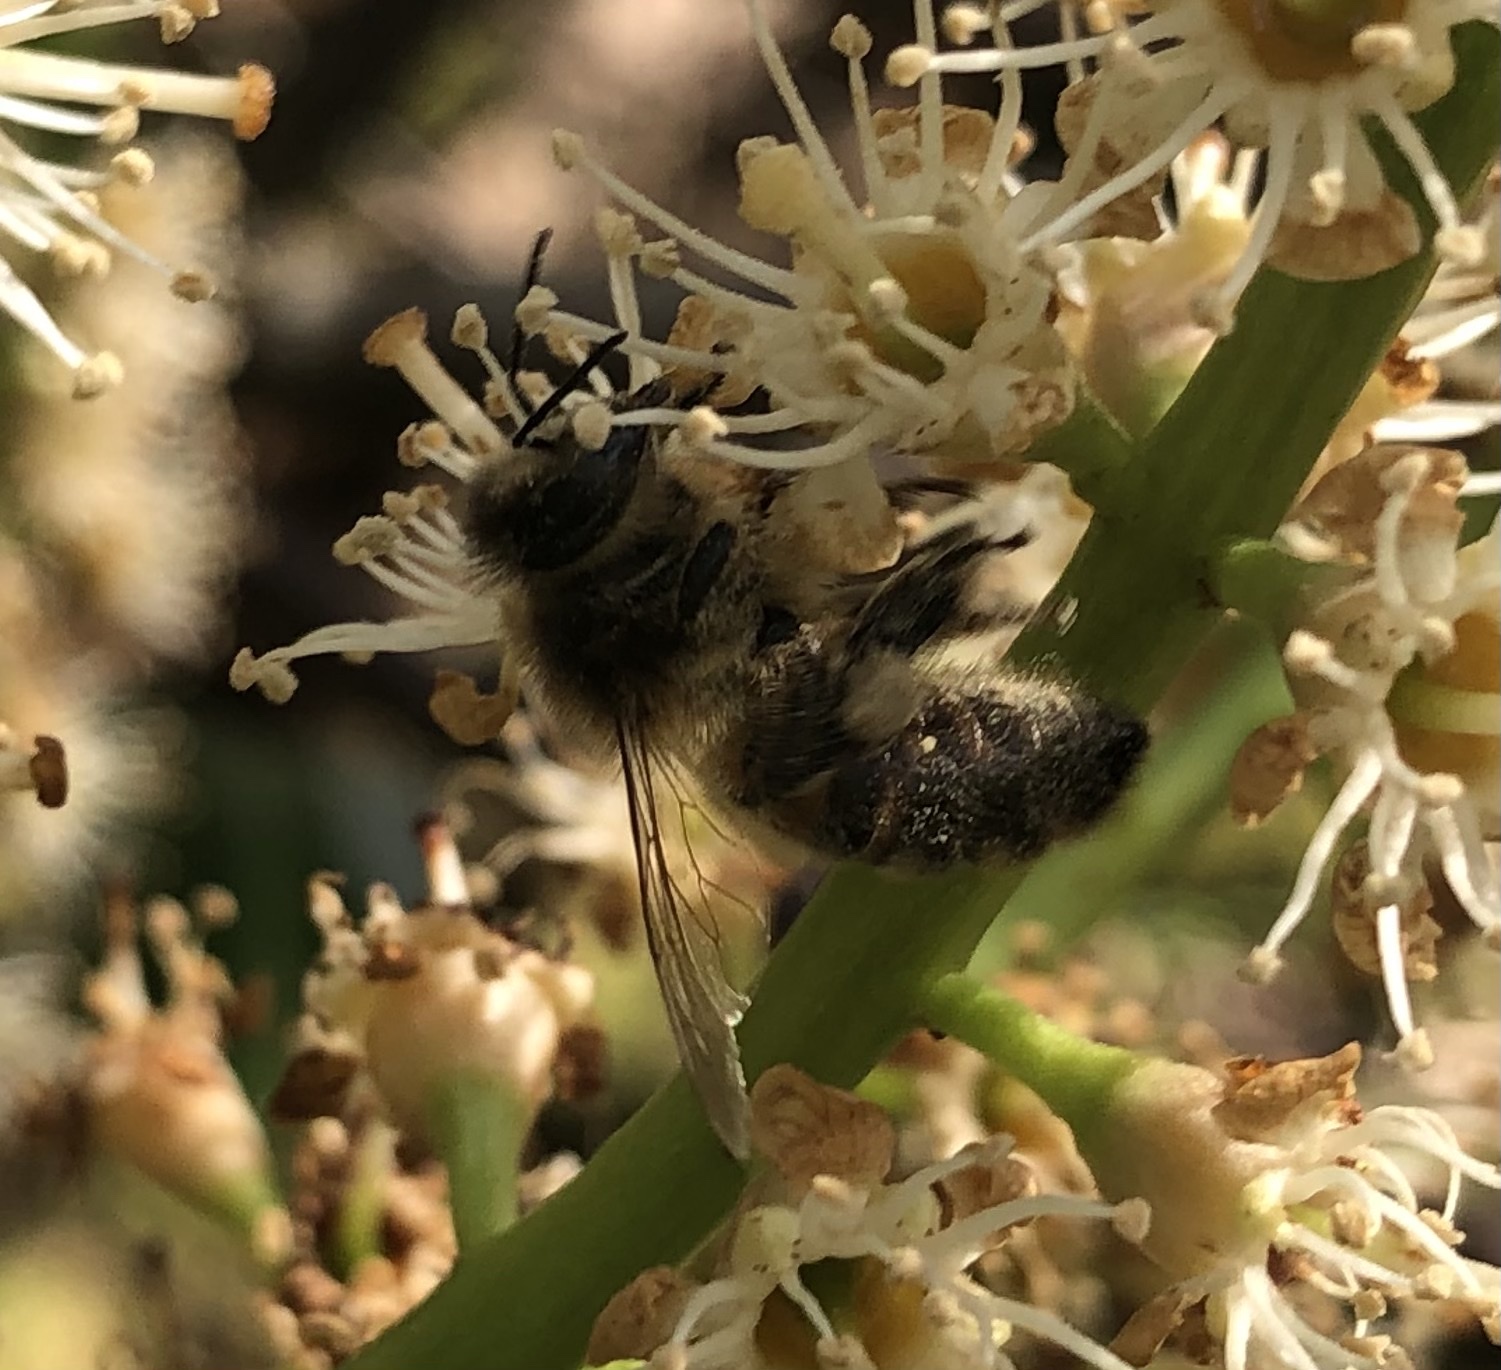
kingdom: Animalia
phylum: Arthropoda
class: Insecta
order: Hymenoptera
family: Apidae
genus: Apis
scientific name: Apis mellifera
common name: Honey bee
